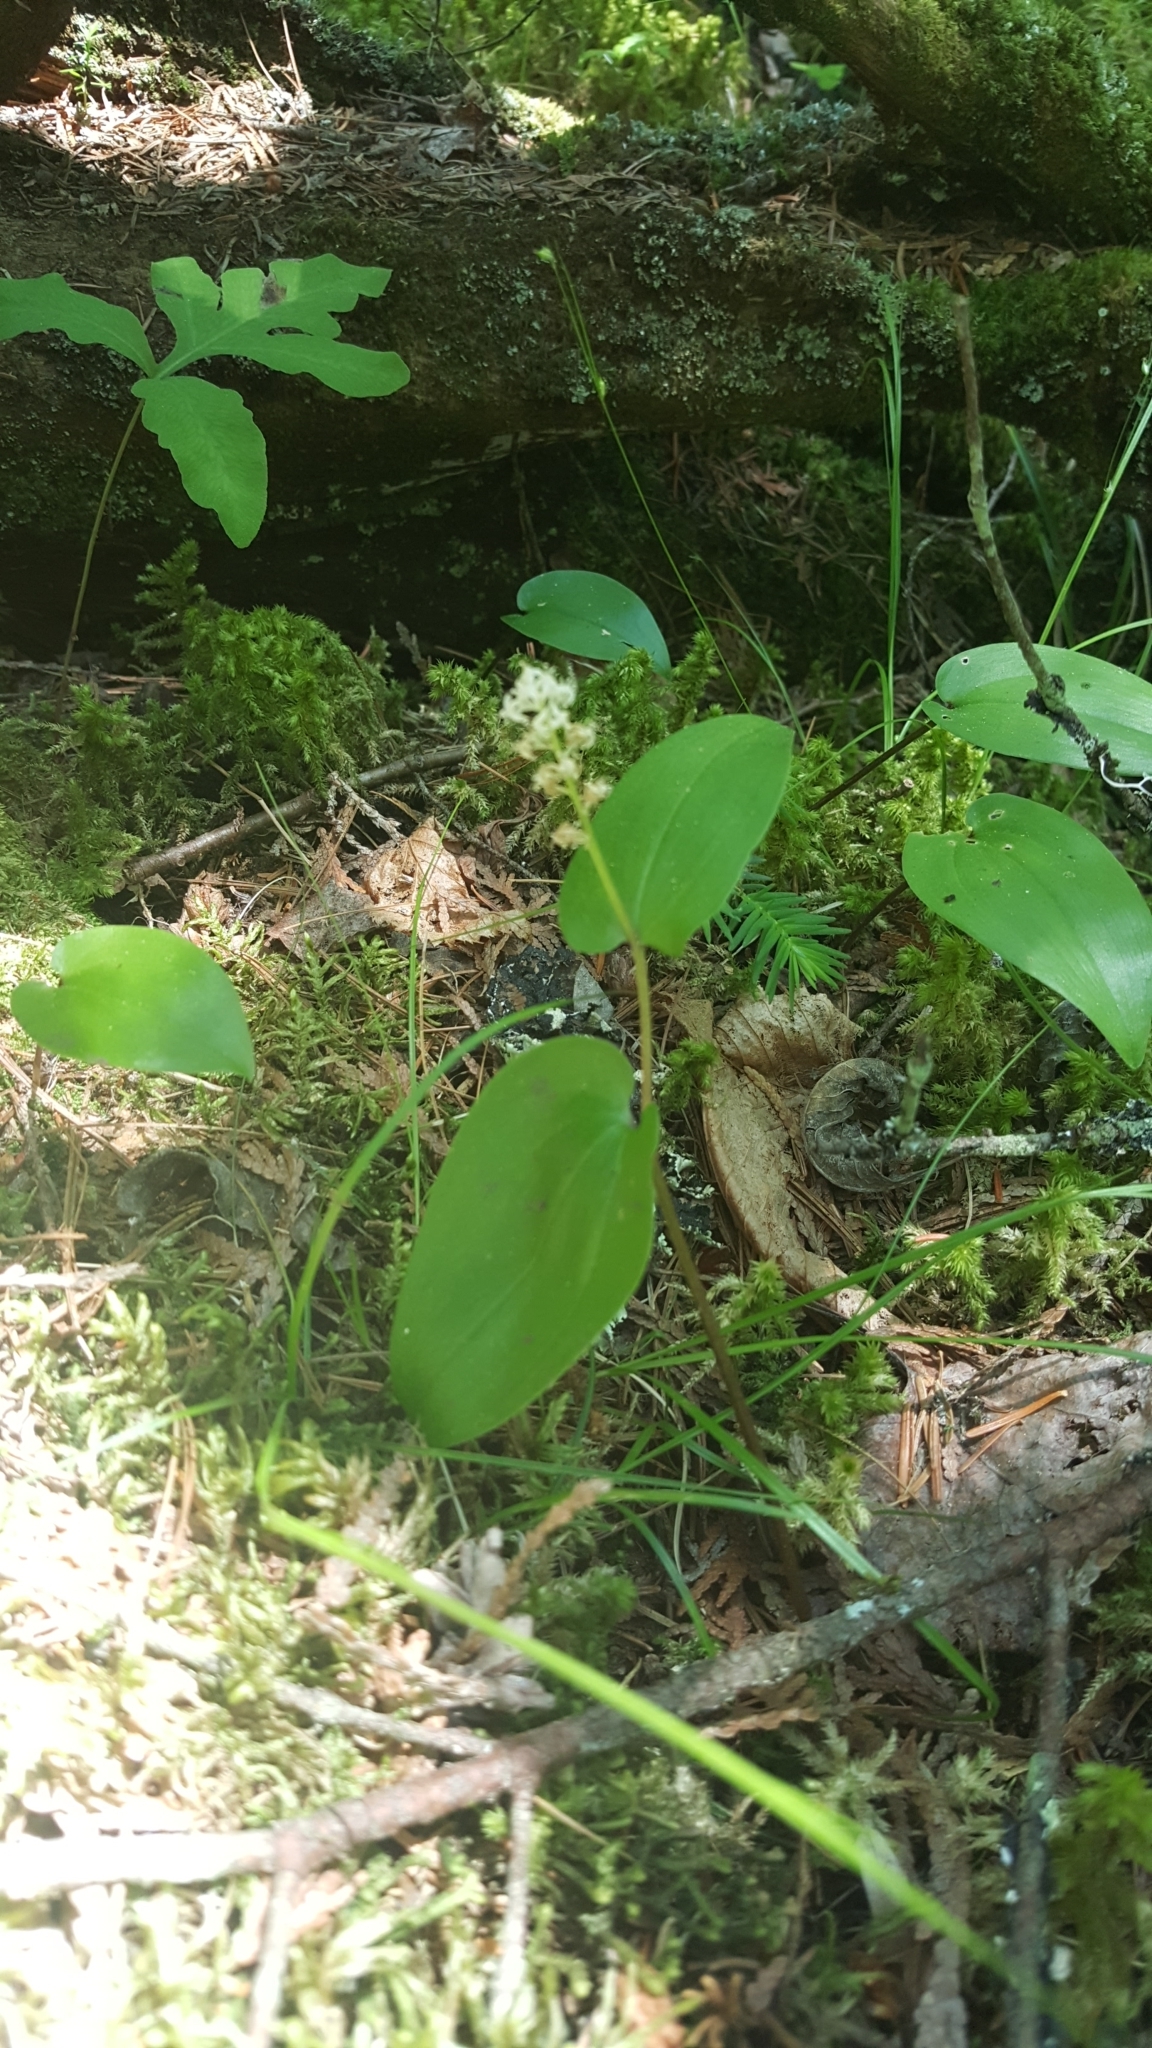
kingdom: Plantae
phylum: Tracheophyta
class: Liliopsida
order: Asparagales
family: Asparagaceae
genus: Maianthemum
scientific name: Maianthemum canadense
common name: False lily-of-the-valley
